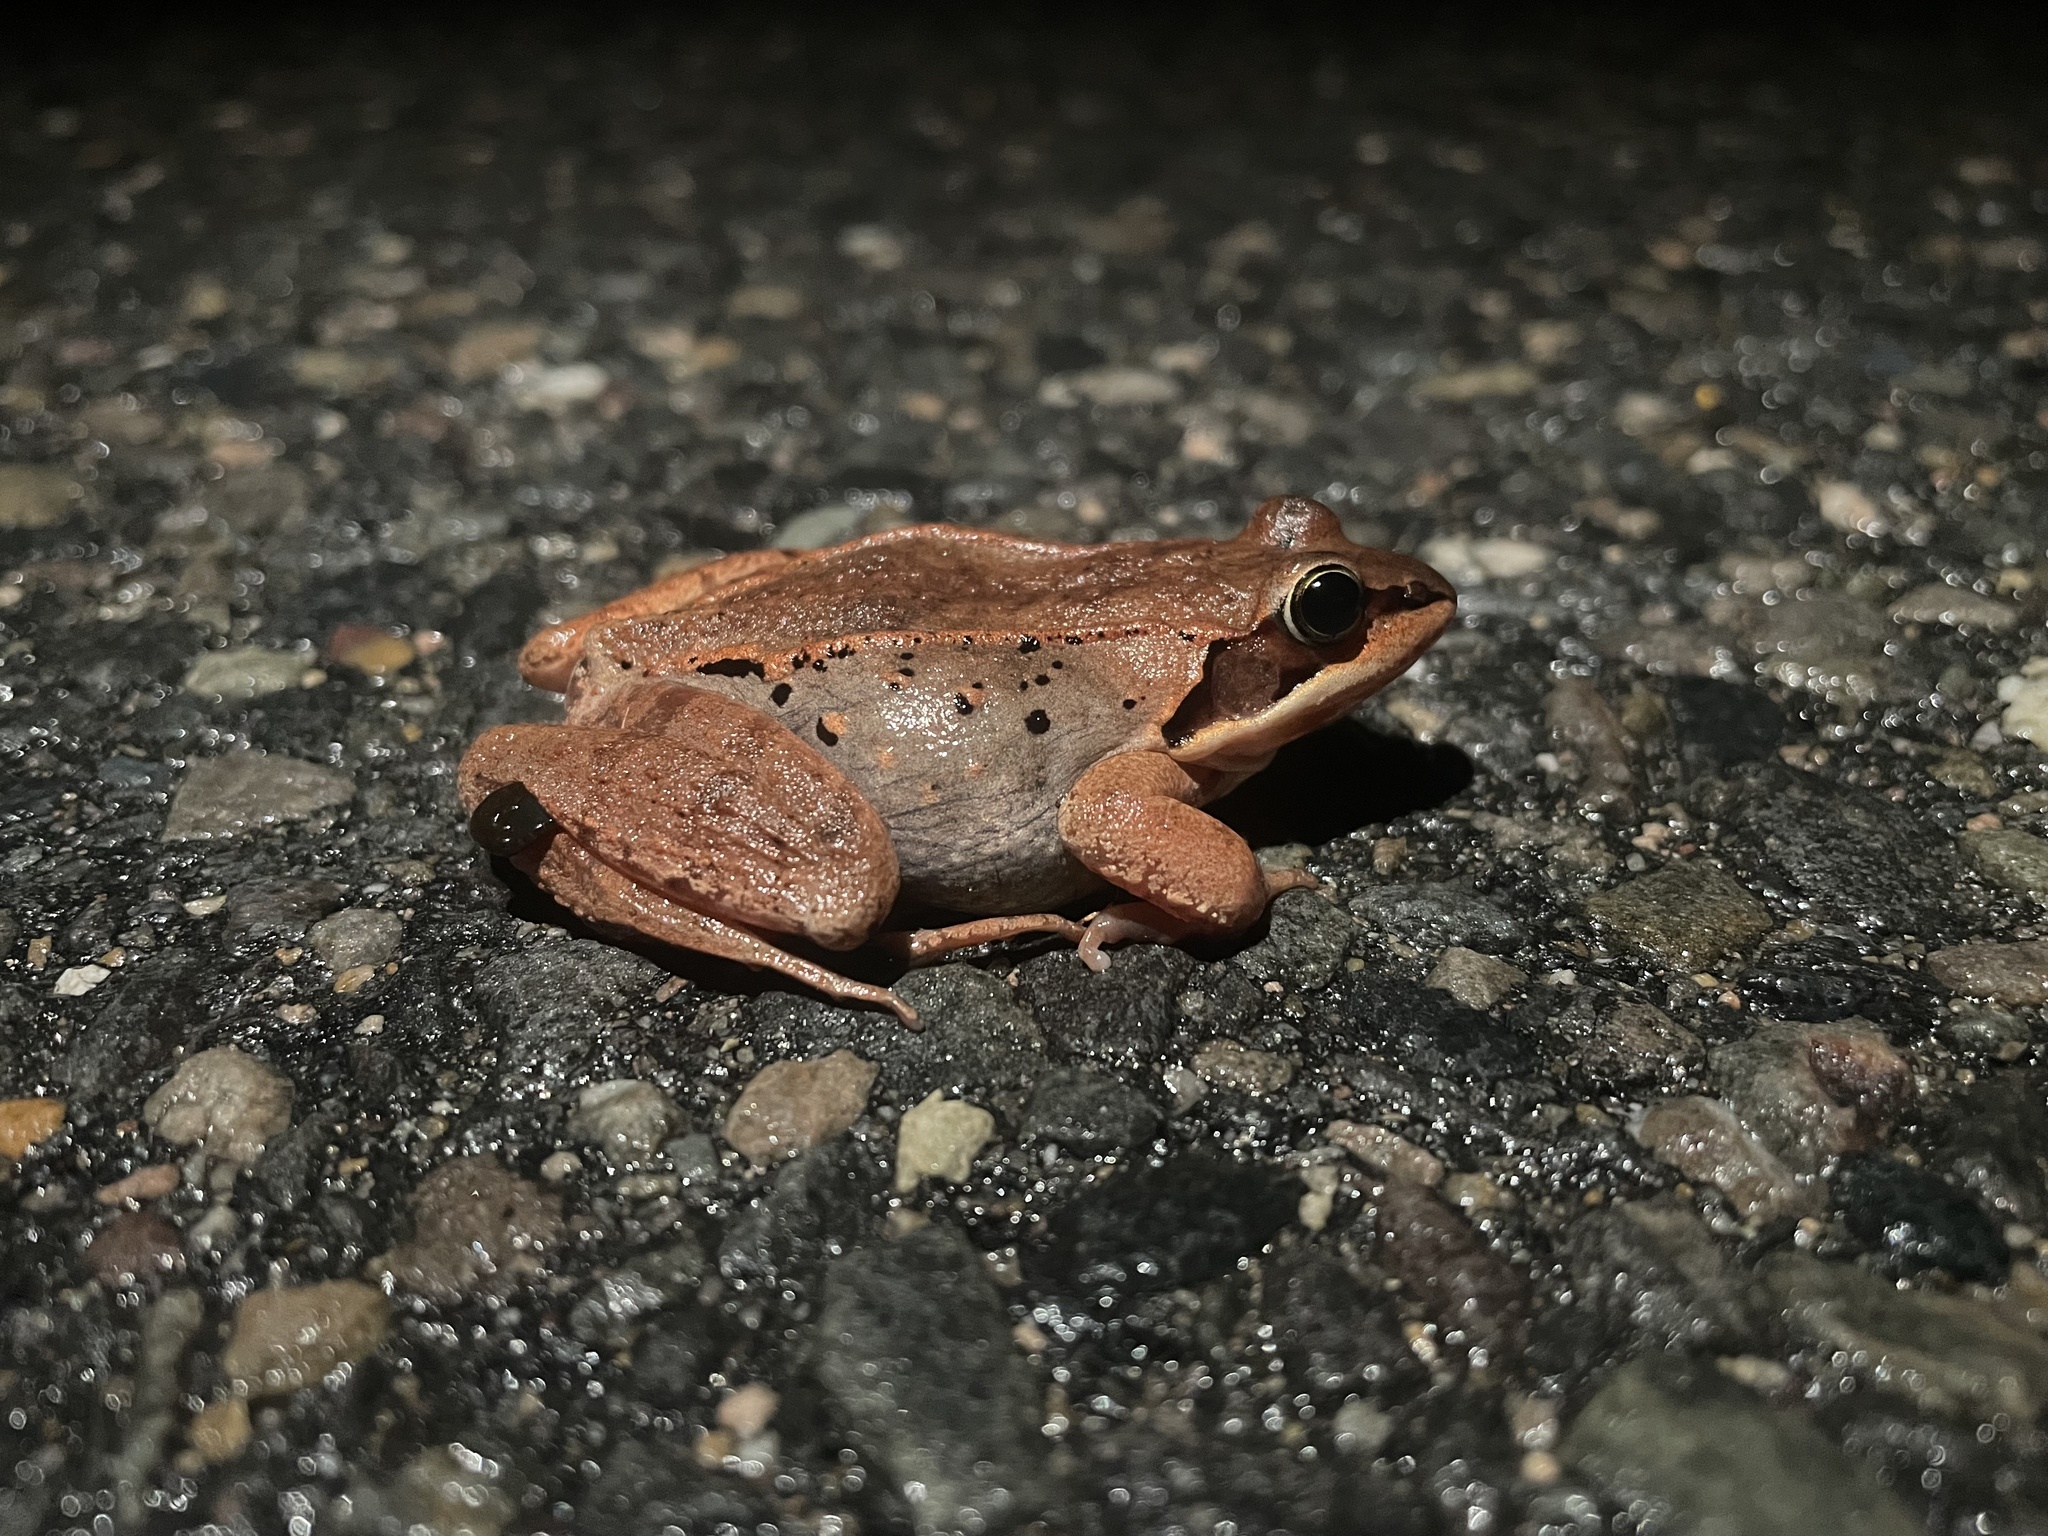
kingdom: Animalia
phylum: Chordata
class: Amphibia
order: Anura
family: Ranidae
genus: Lithobates
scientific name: Lithobates sylvaticus
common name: Wood frog
